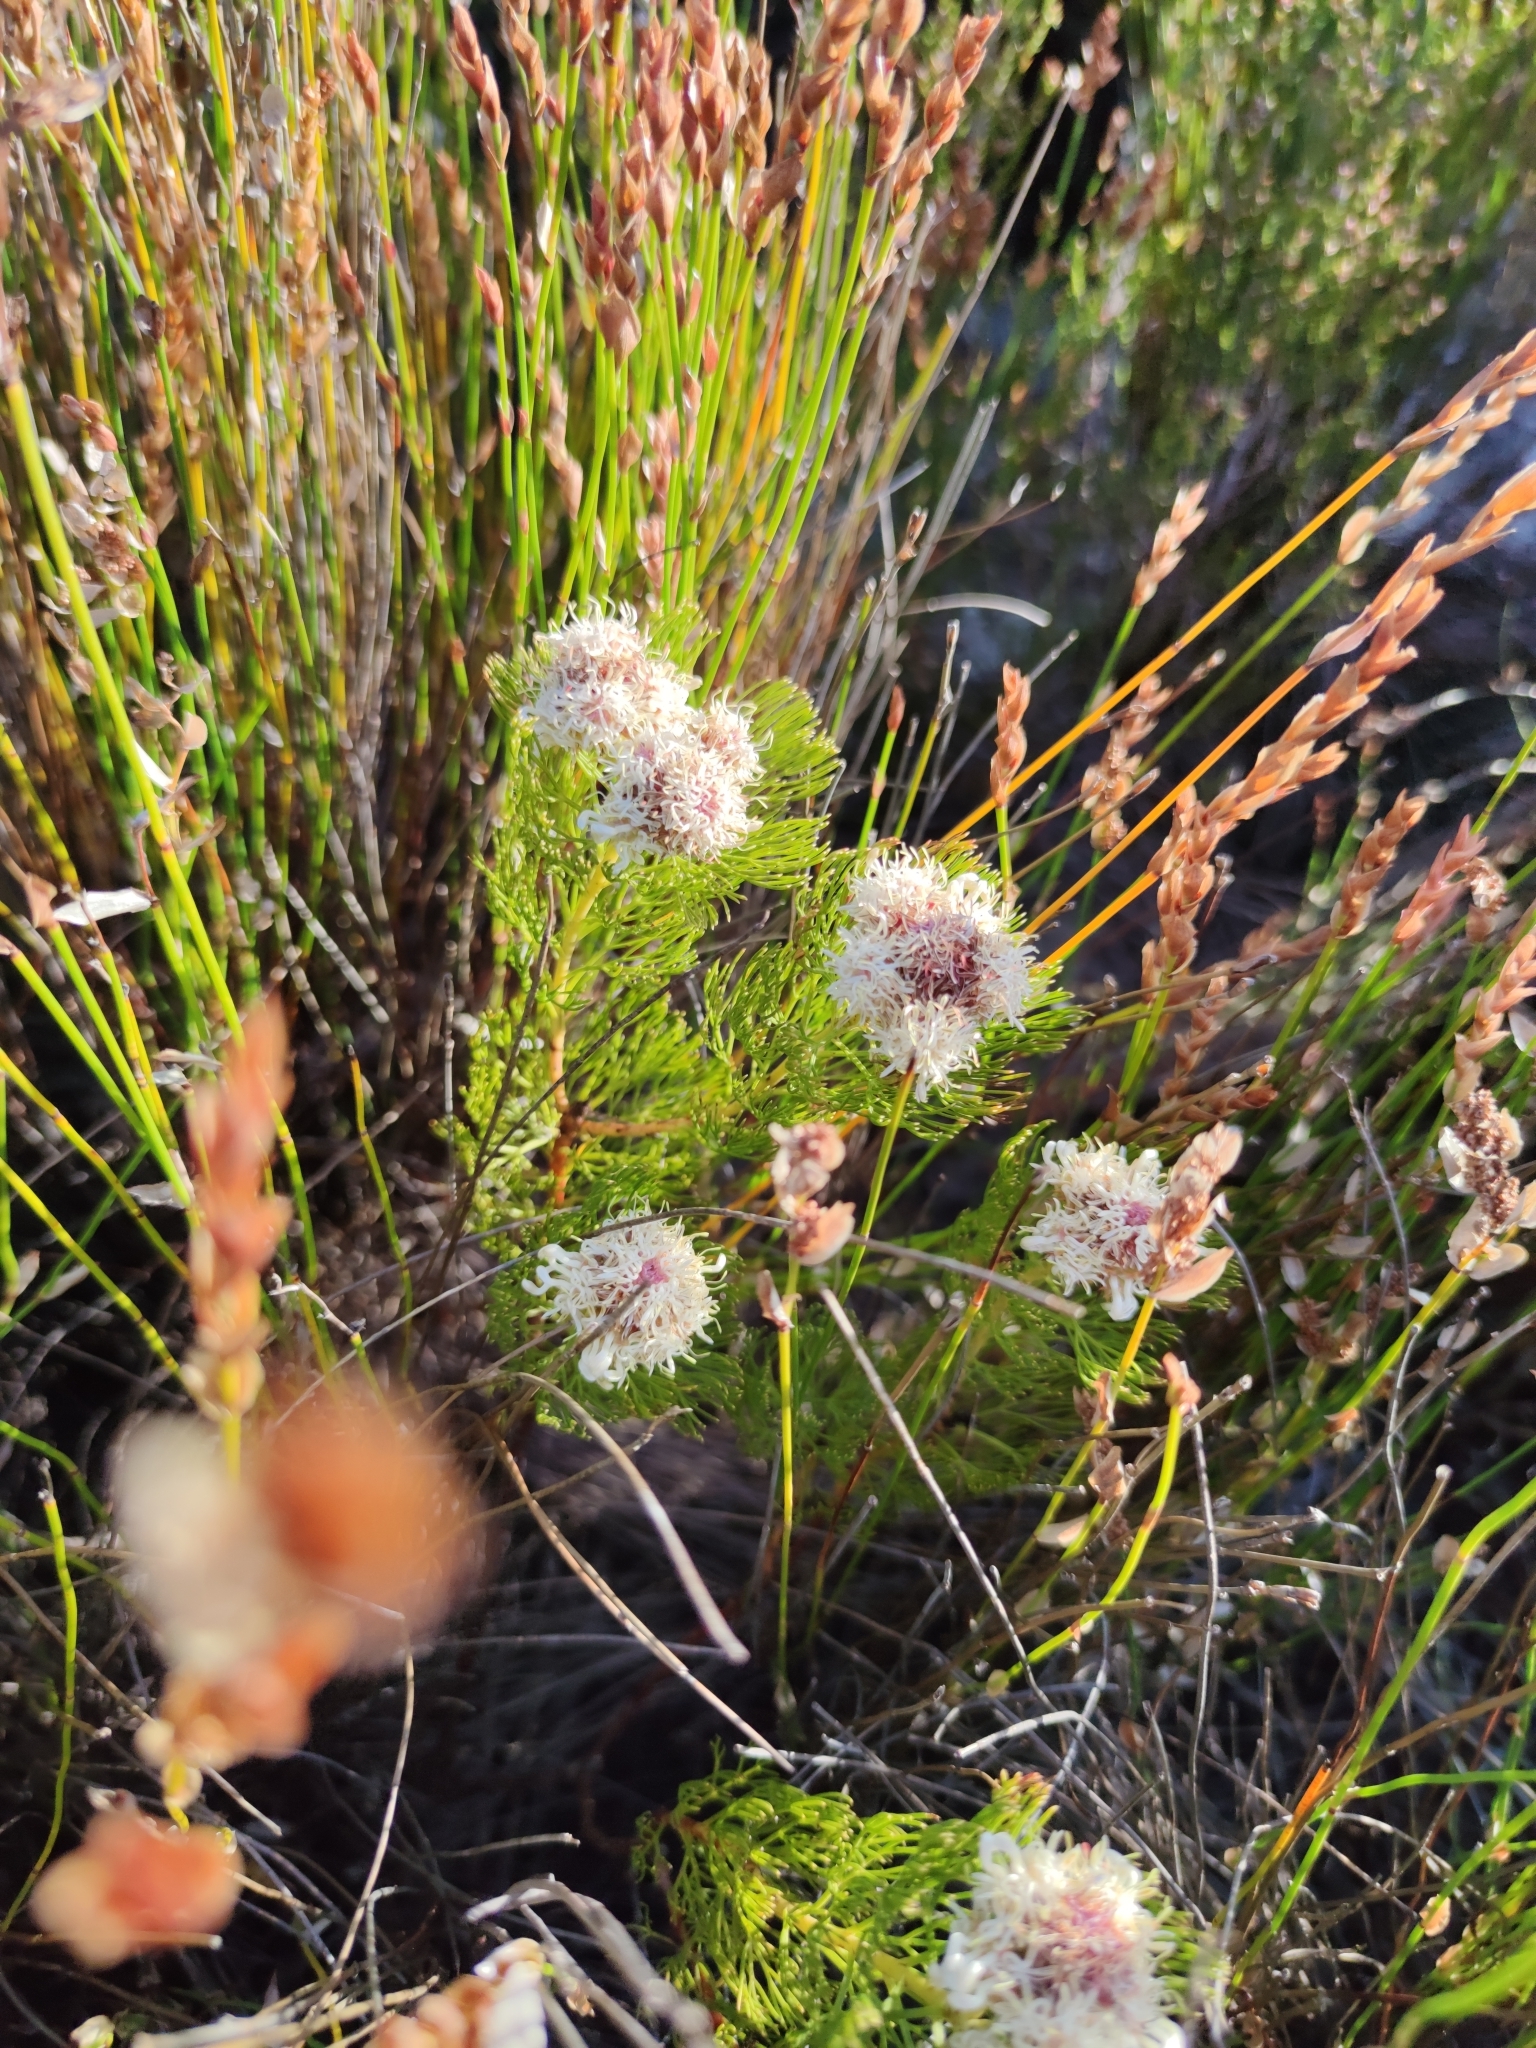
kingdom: Plantae
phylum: Tracheophyta
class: Magnoliopsida
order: Proteales
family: Proteaceae
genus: Serruria
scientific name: Serruria glomerata
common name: Cluster spiderhead
